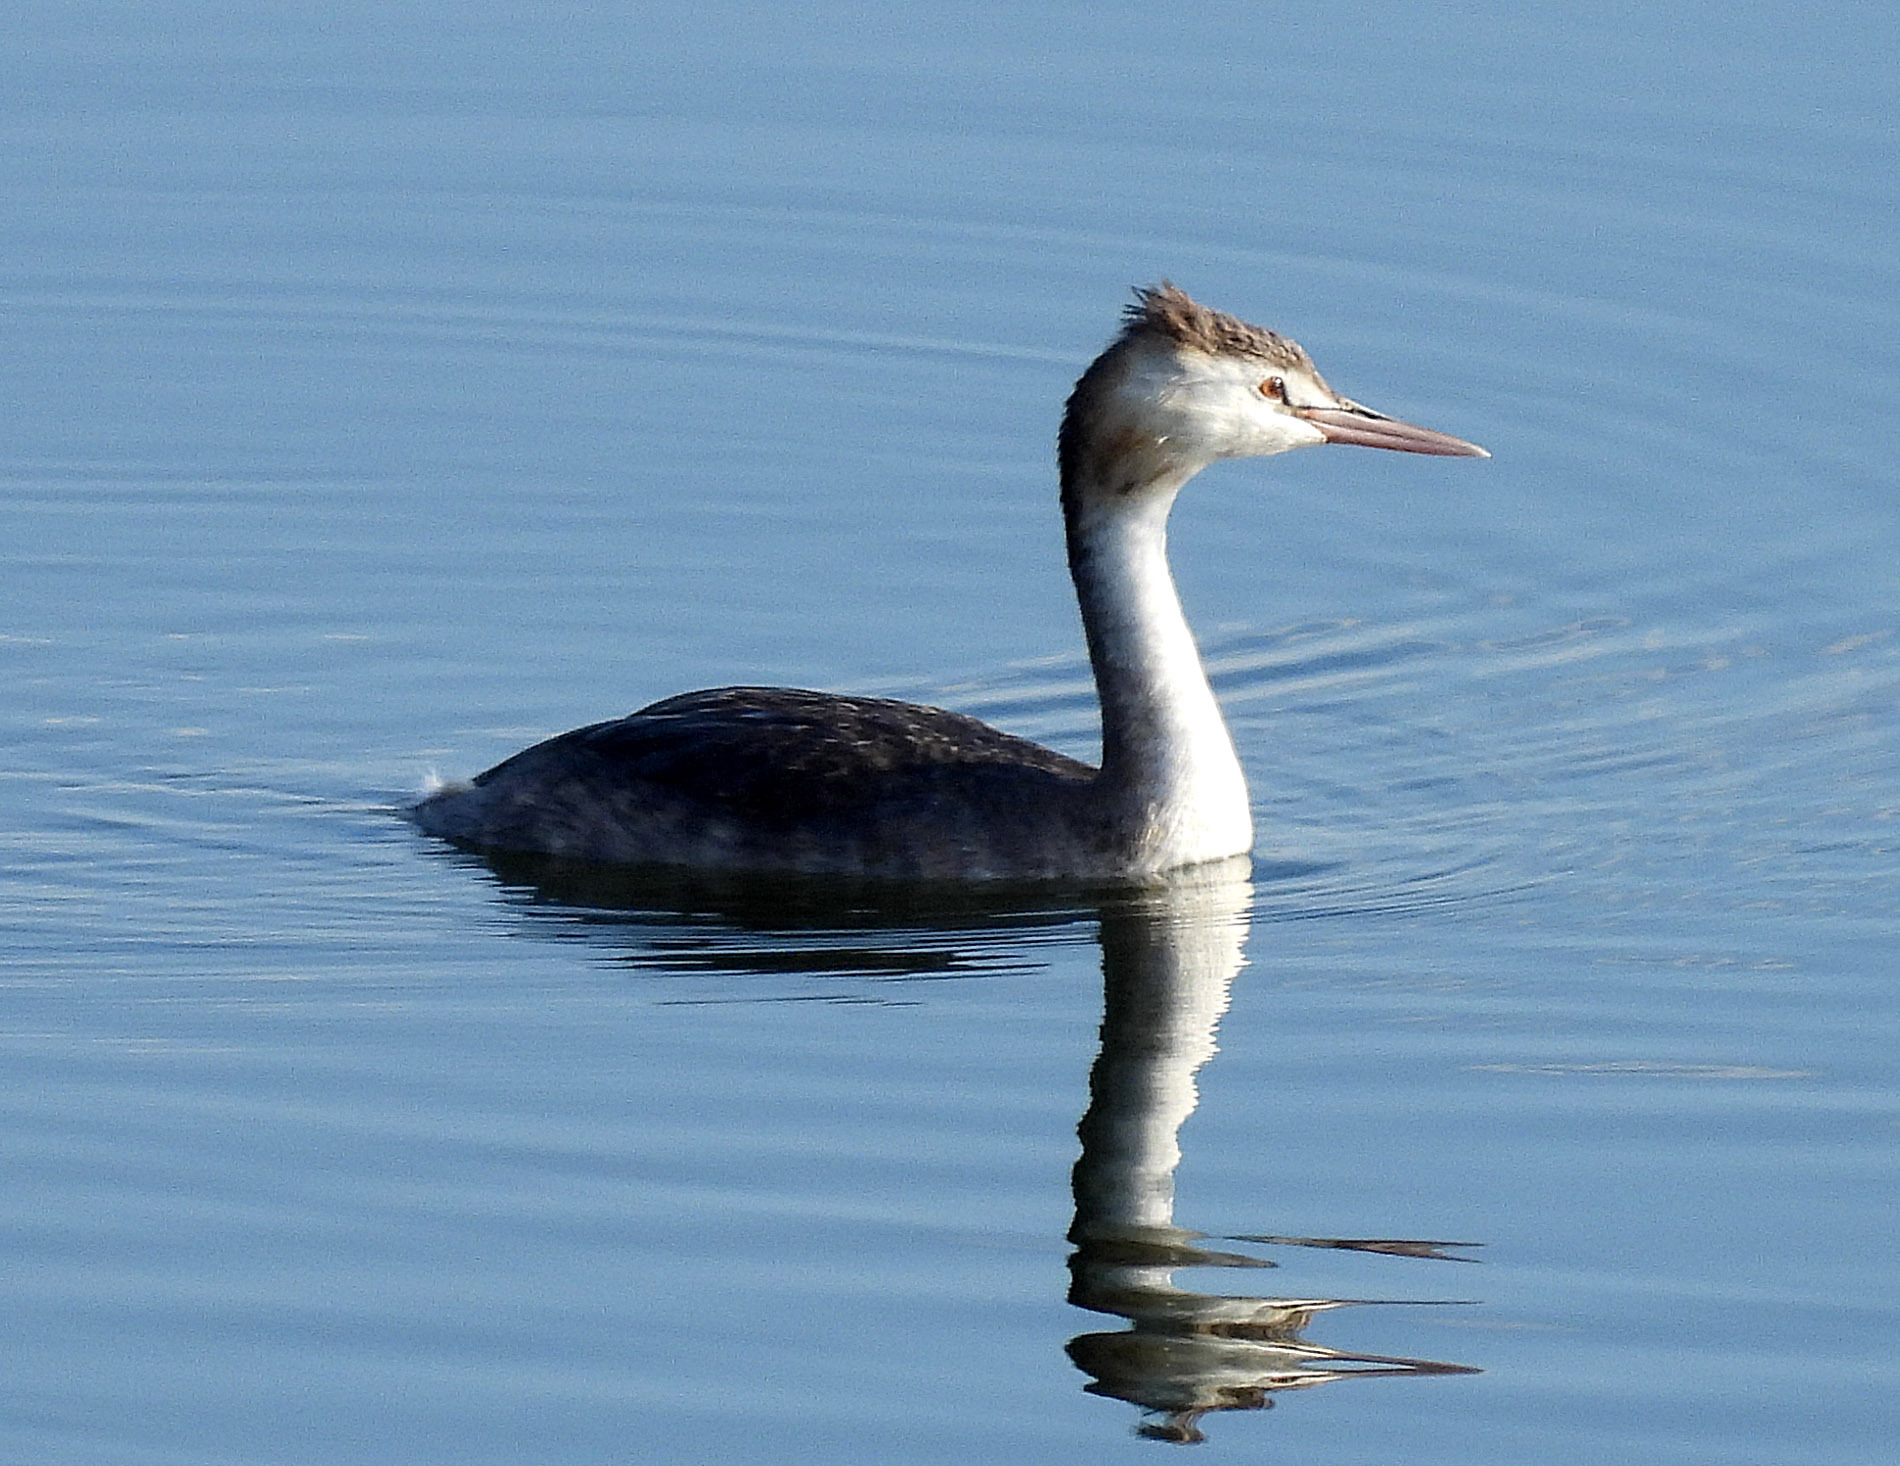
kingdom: Animalia
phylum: Chordata
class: Aves
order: Podicipediformes
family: Podicipedidae
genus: Podiceps
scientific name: Podiceps cristatus
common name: Great crested grebe
